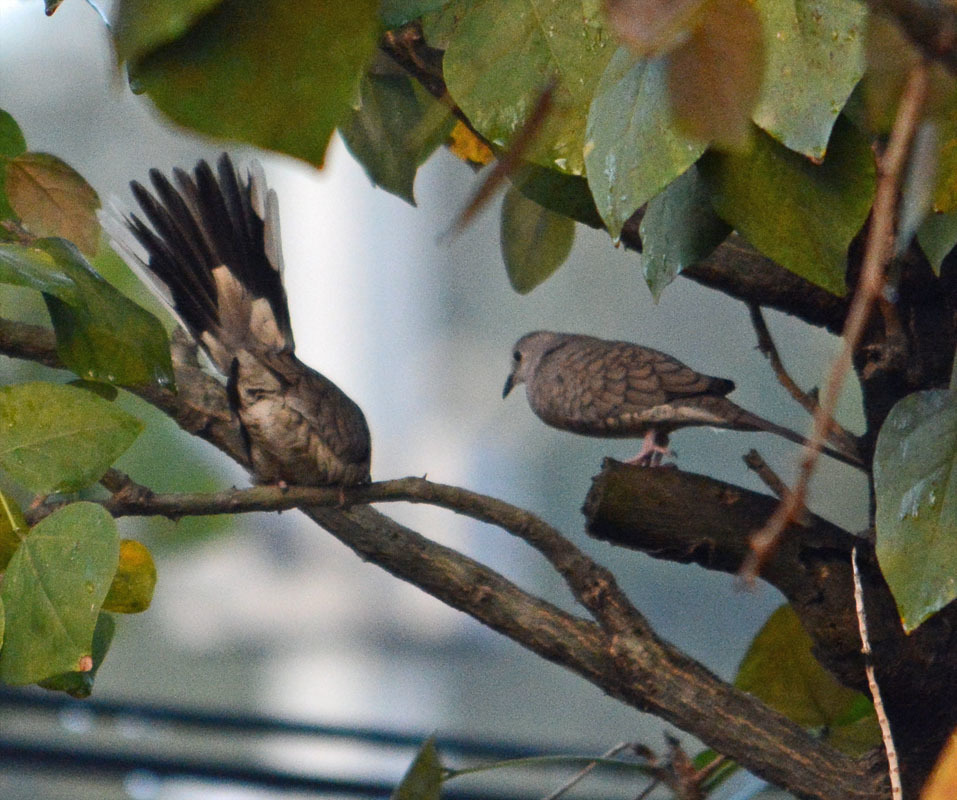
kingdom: Animalia
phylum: Chordata
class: Aves
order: Columbiformes
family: Columbidae
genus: Columbina
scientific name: Columbina inca
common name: Inca dove
